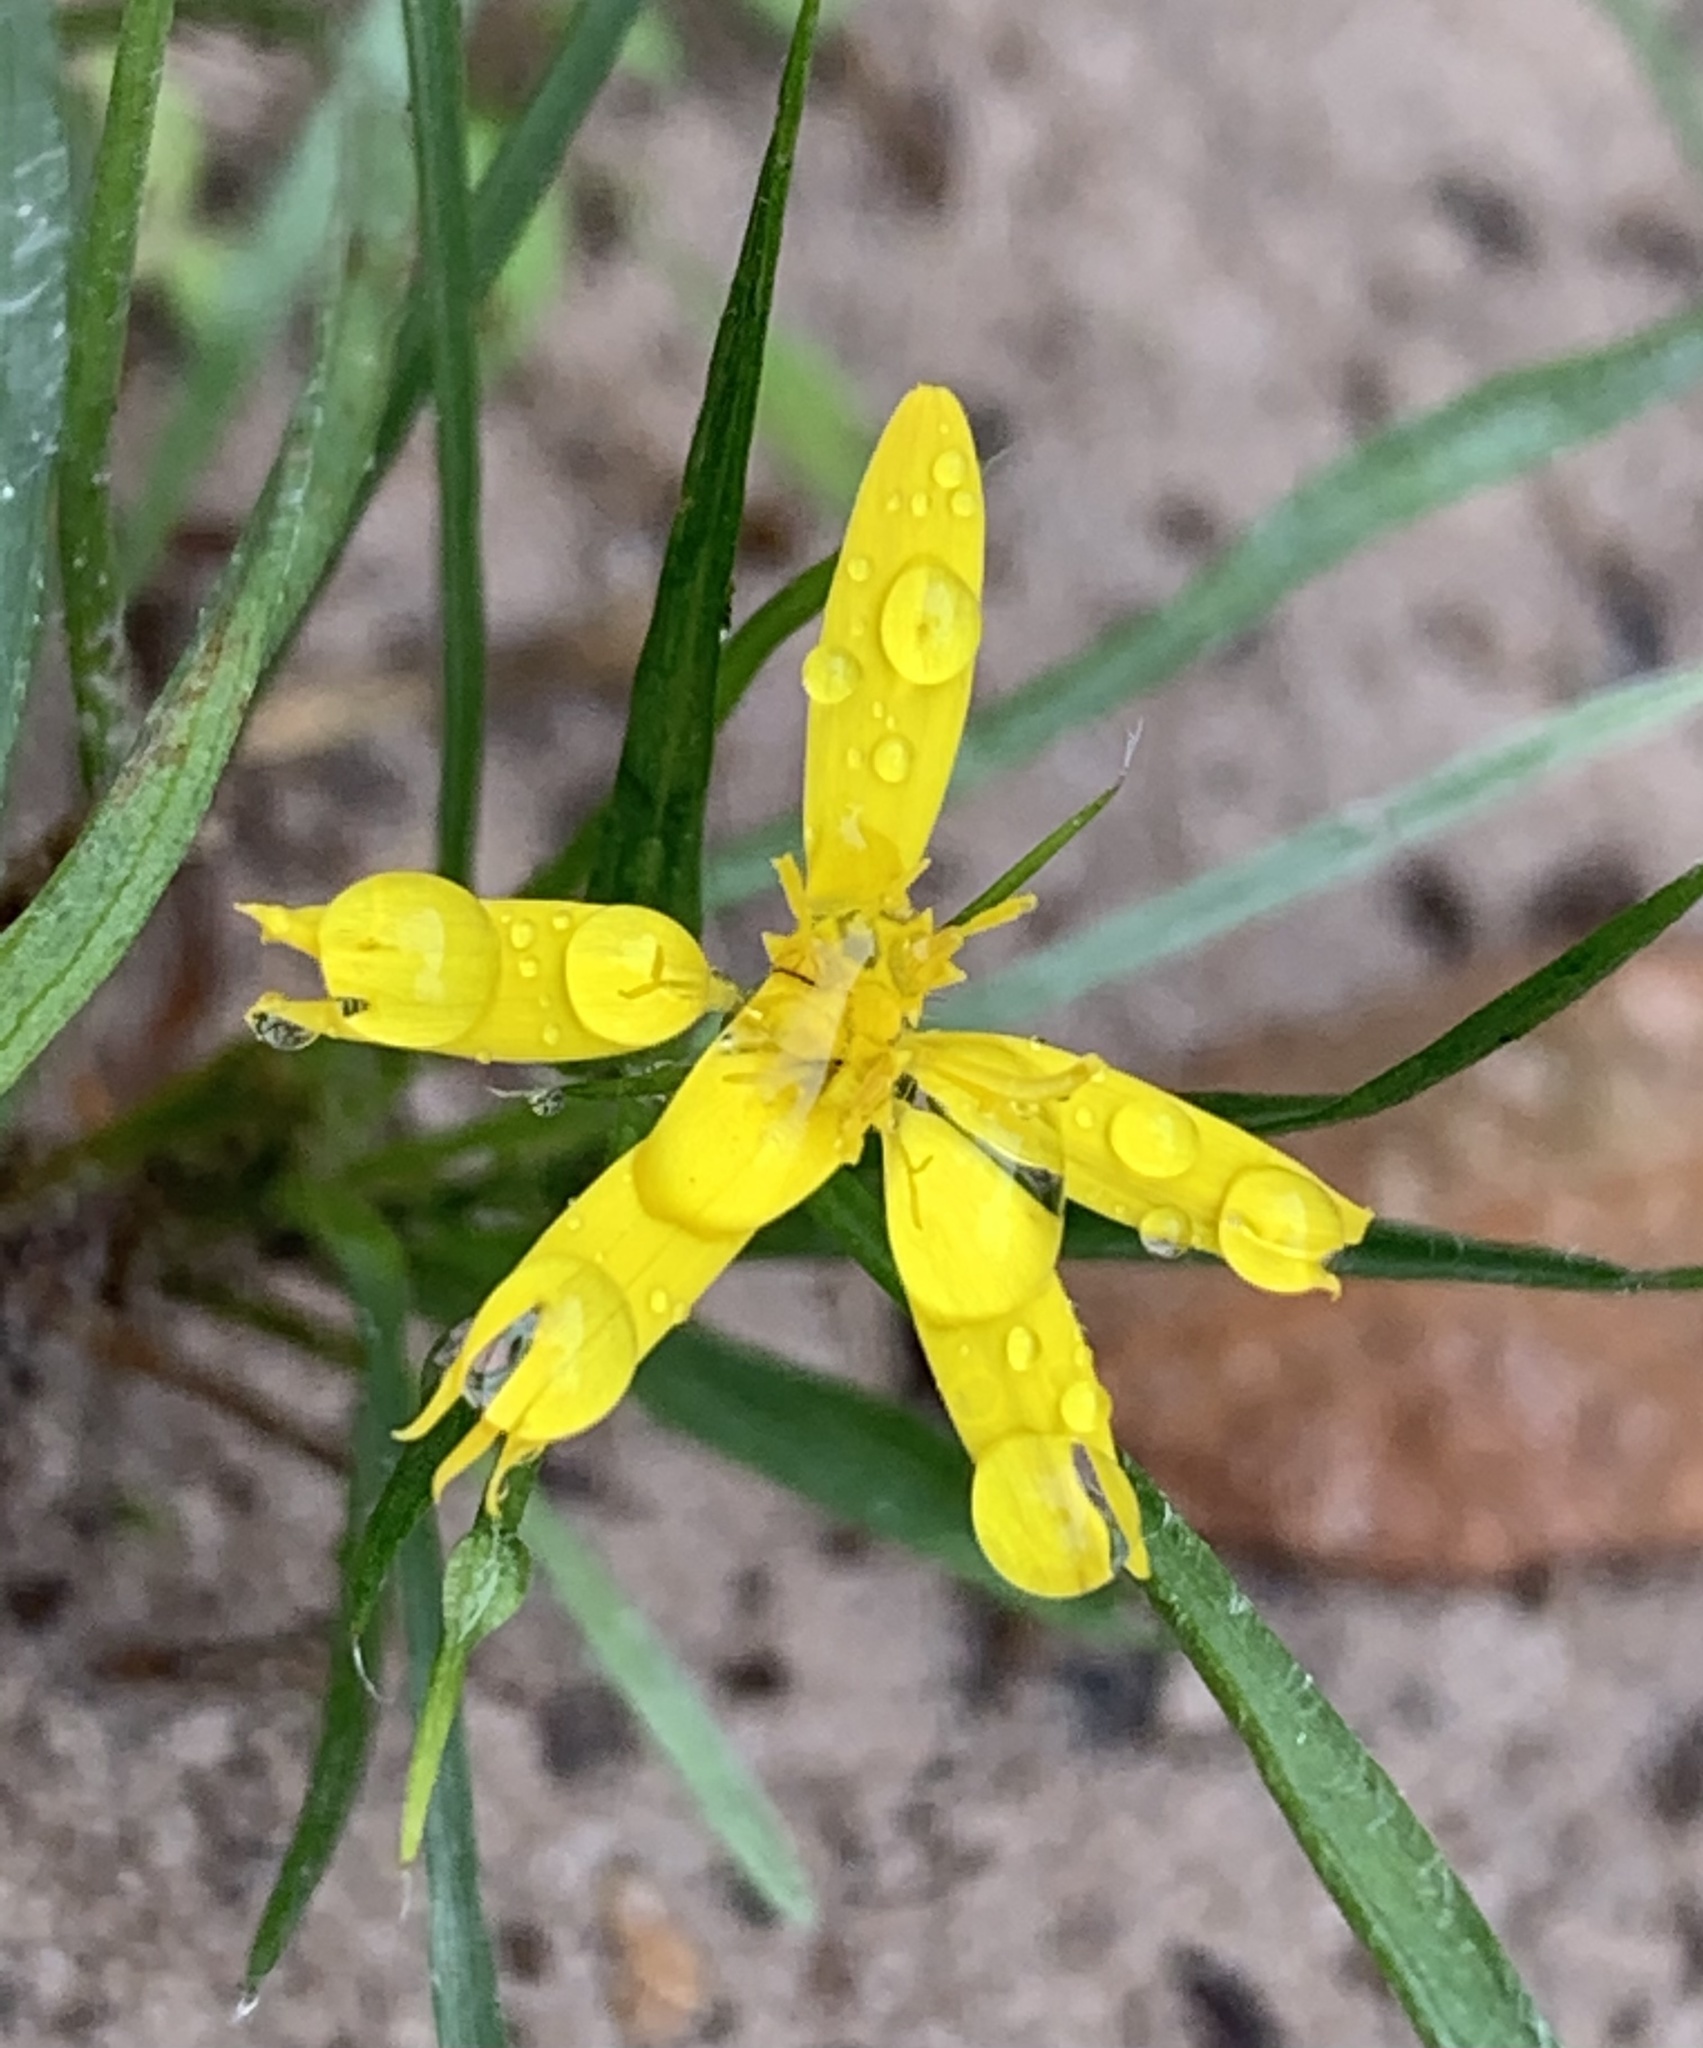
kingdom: Plantae
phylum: Tracheophyta
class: Magnoliopsida
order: Asterales
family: Asteraceae
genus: Pityopsis
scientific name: Pityopsis graminifolia
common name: Grass-leaf golden-aster
